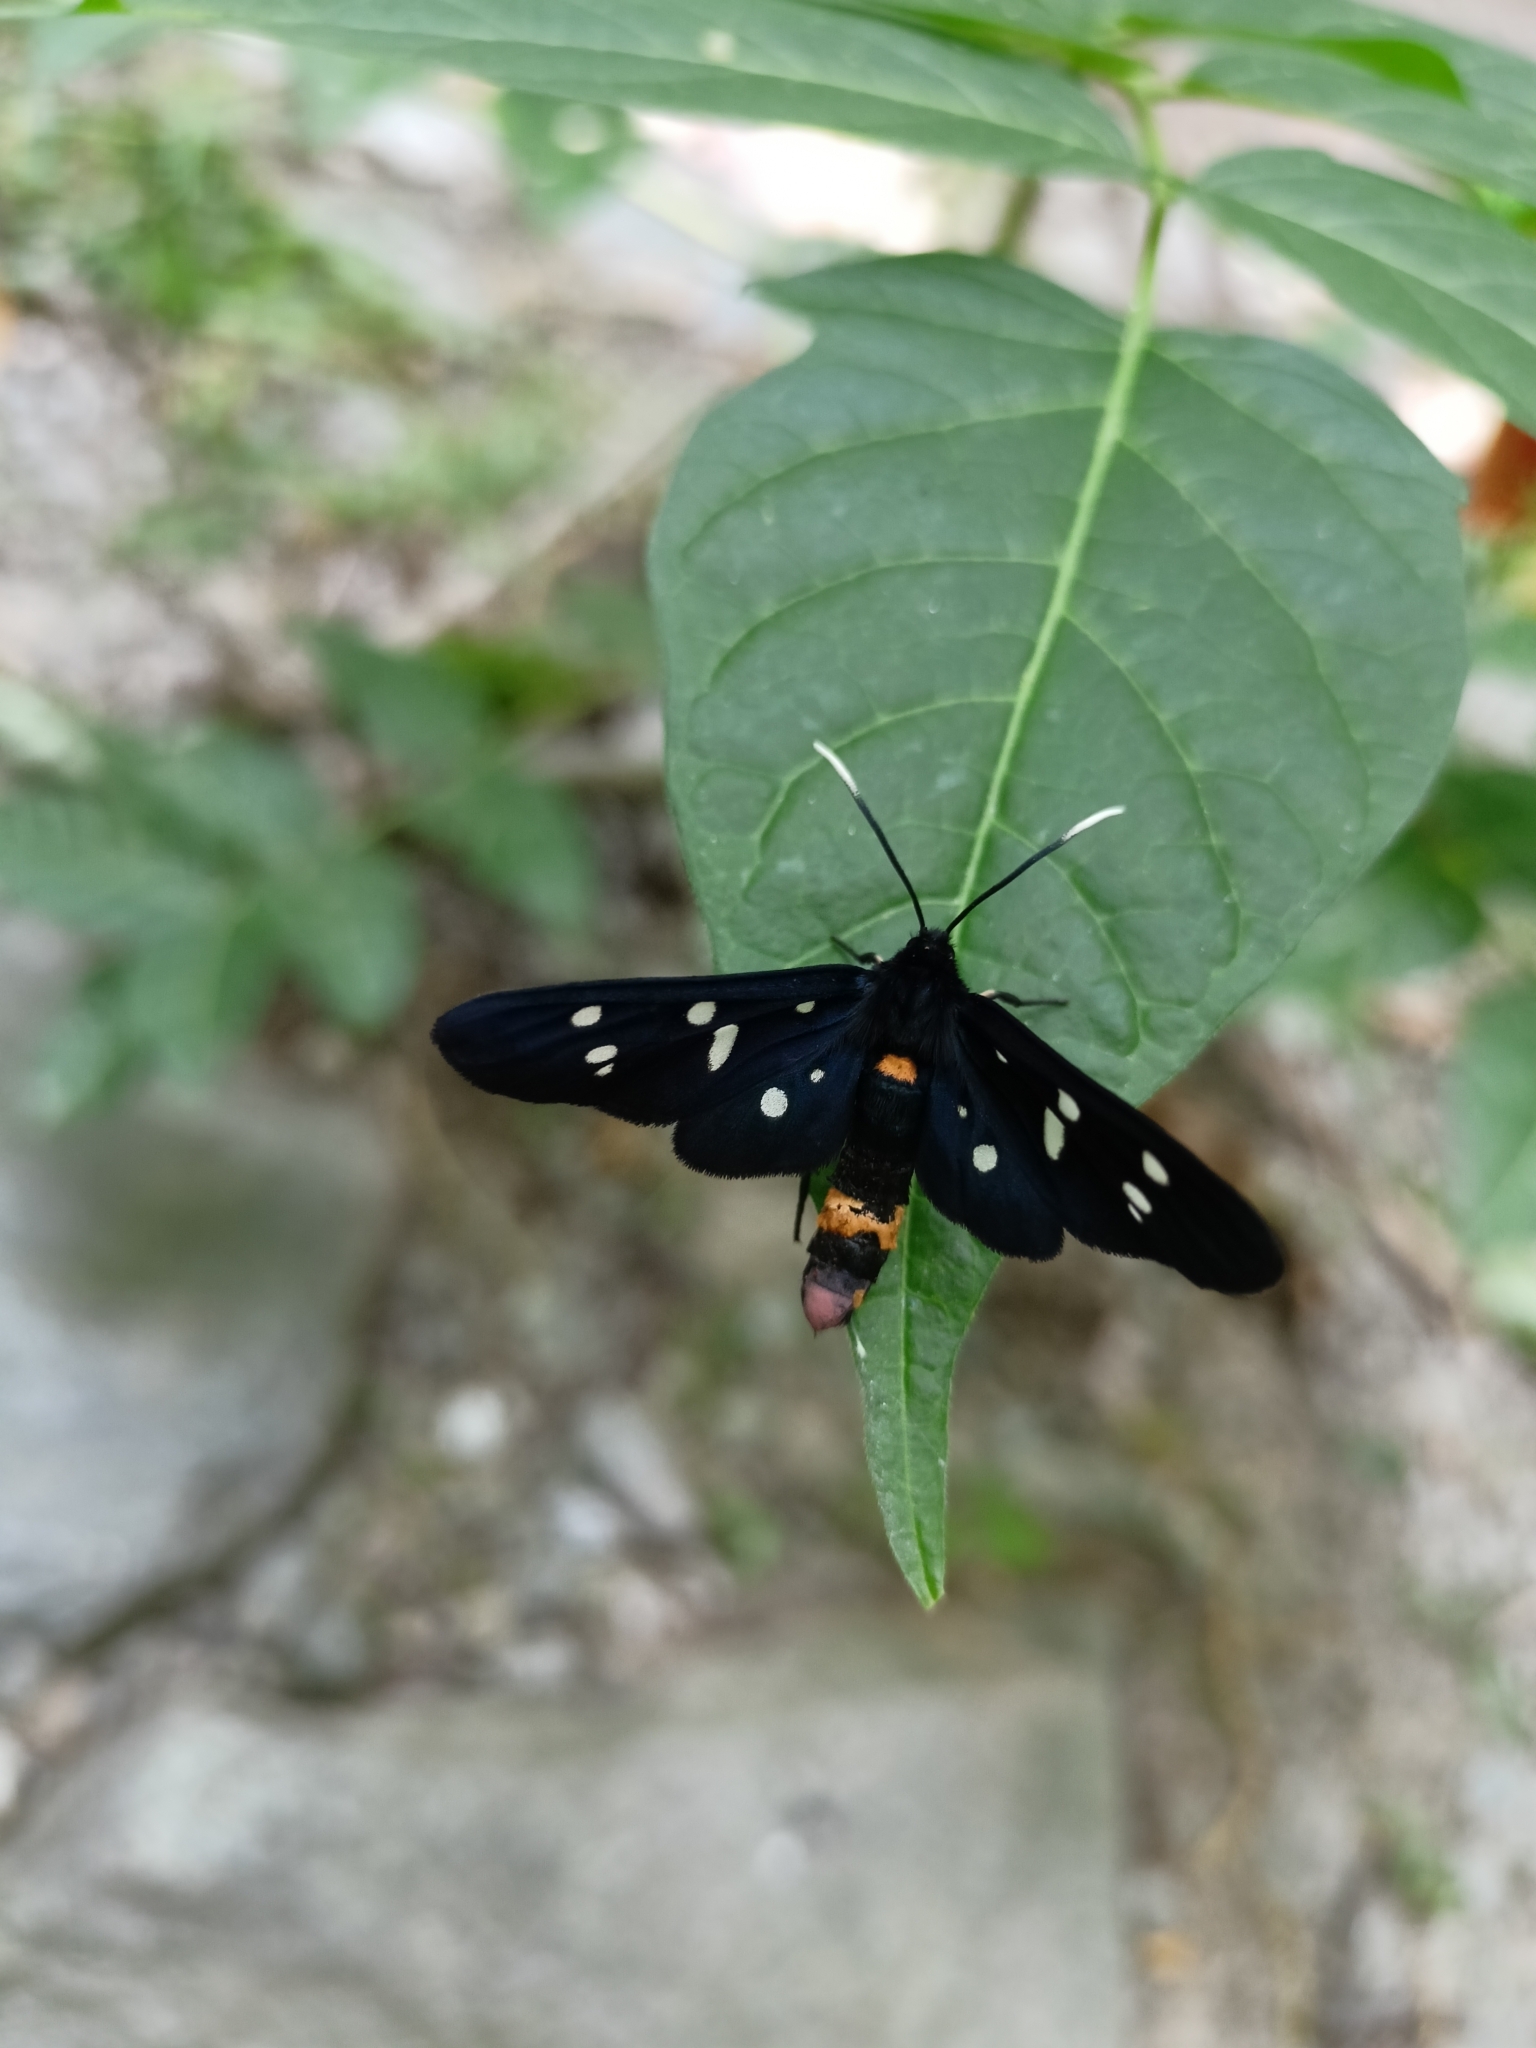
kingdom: Animalia
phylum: Arthropoda
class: Insecta
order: Lepidoptera
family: Erebidae
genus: Amata
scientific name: Amata phegea
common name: Nine-spotted
